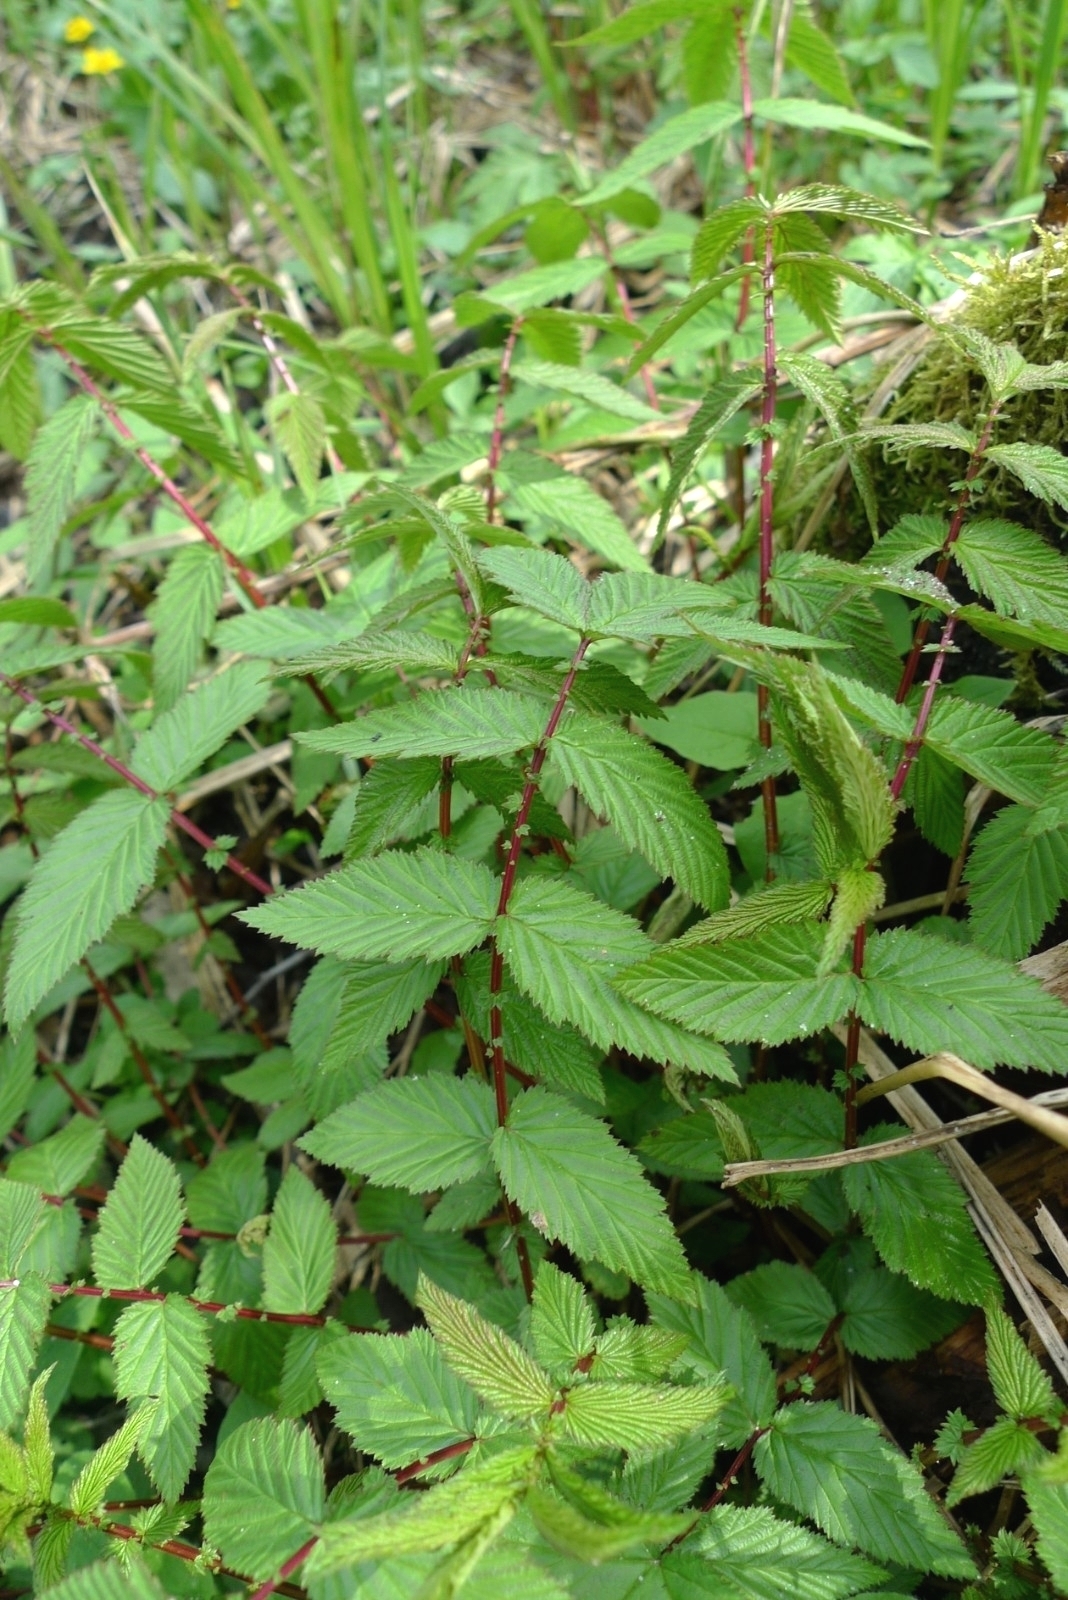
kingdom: Plantae
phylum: Tracheophyta
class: Magnoliopsida
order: Rosales
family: Rosaceae
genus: Filipendula
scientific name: Filipendula ulmaria
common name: Meadowsweet
